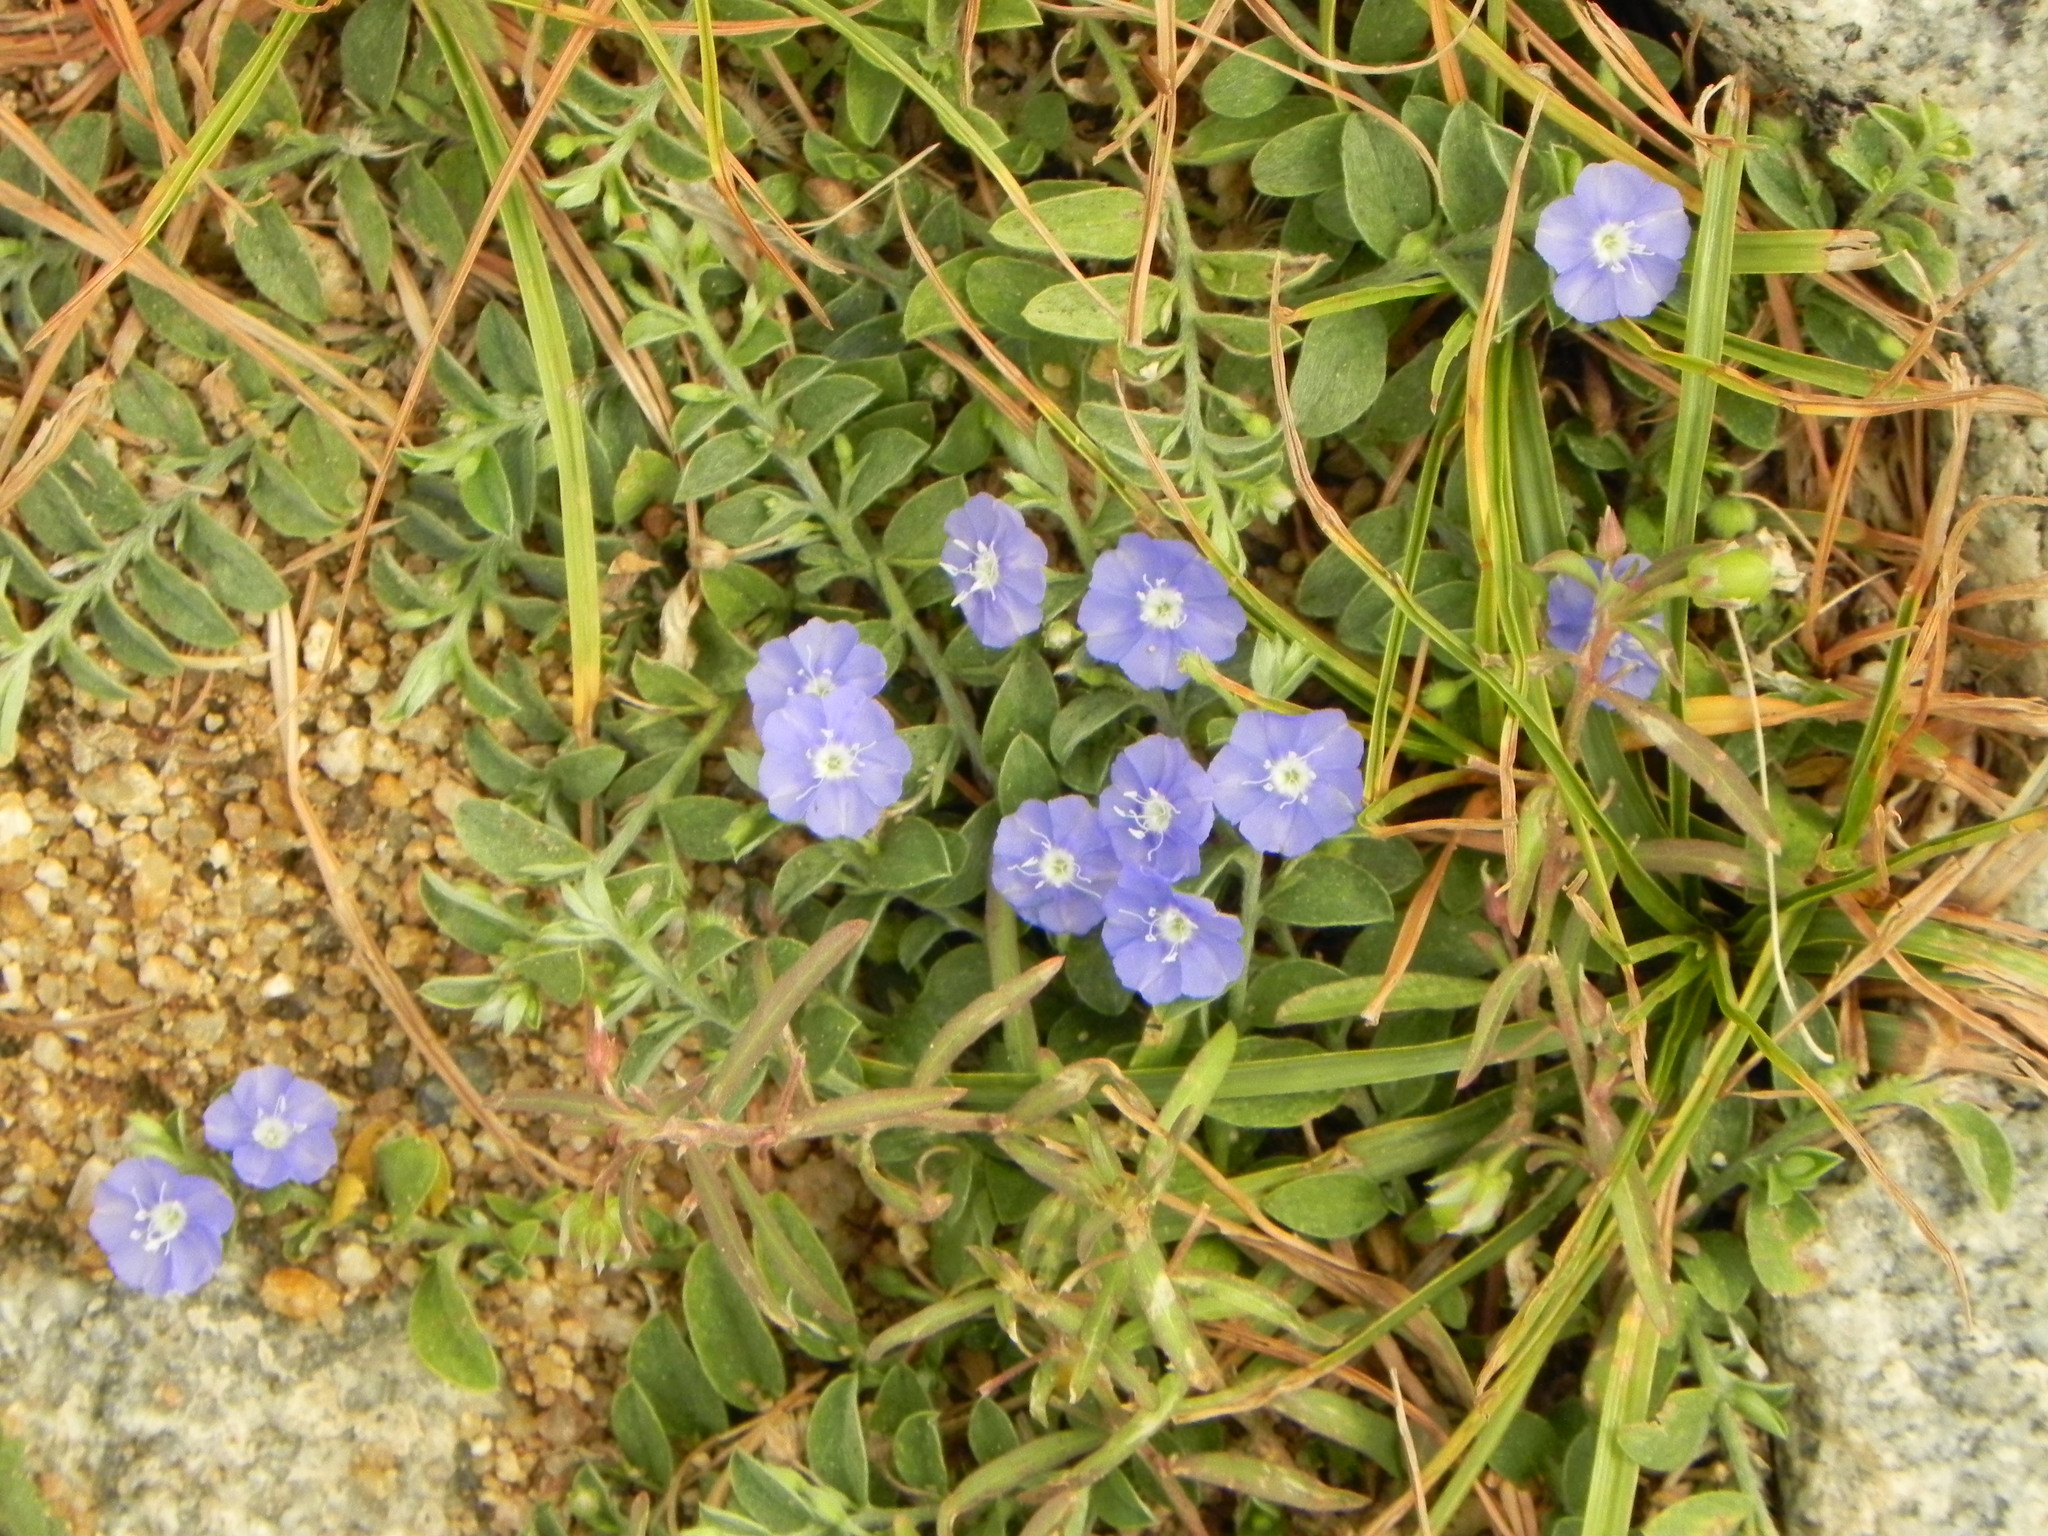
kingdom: Plantae
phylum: Tracheophyta
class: Magnoliopsida
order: Solanales
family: Convolvulaceae
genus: Evolvulus
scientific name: Evolvulus alsinoides
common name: Slender dwarf morning-glory
